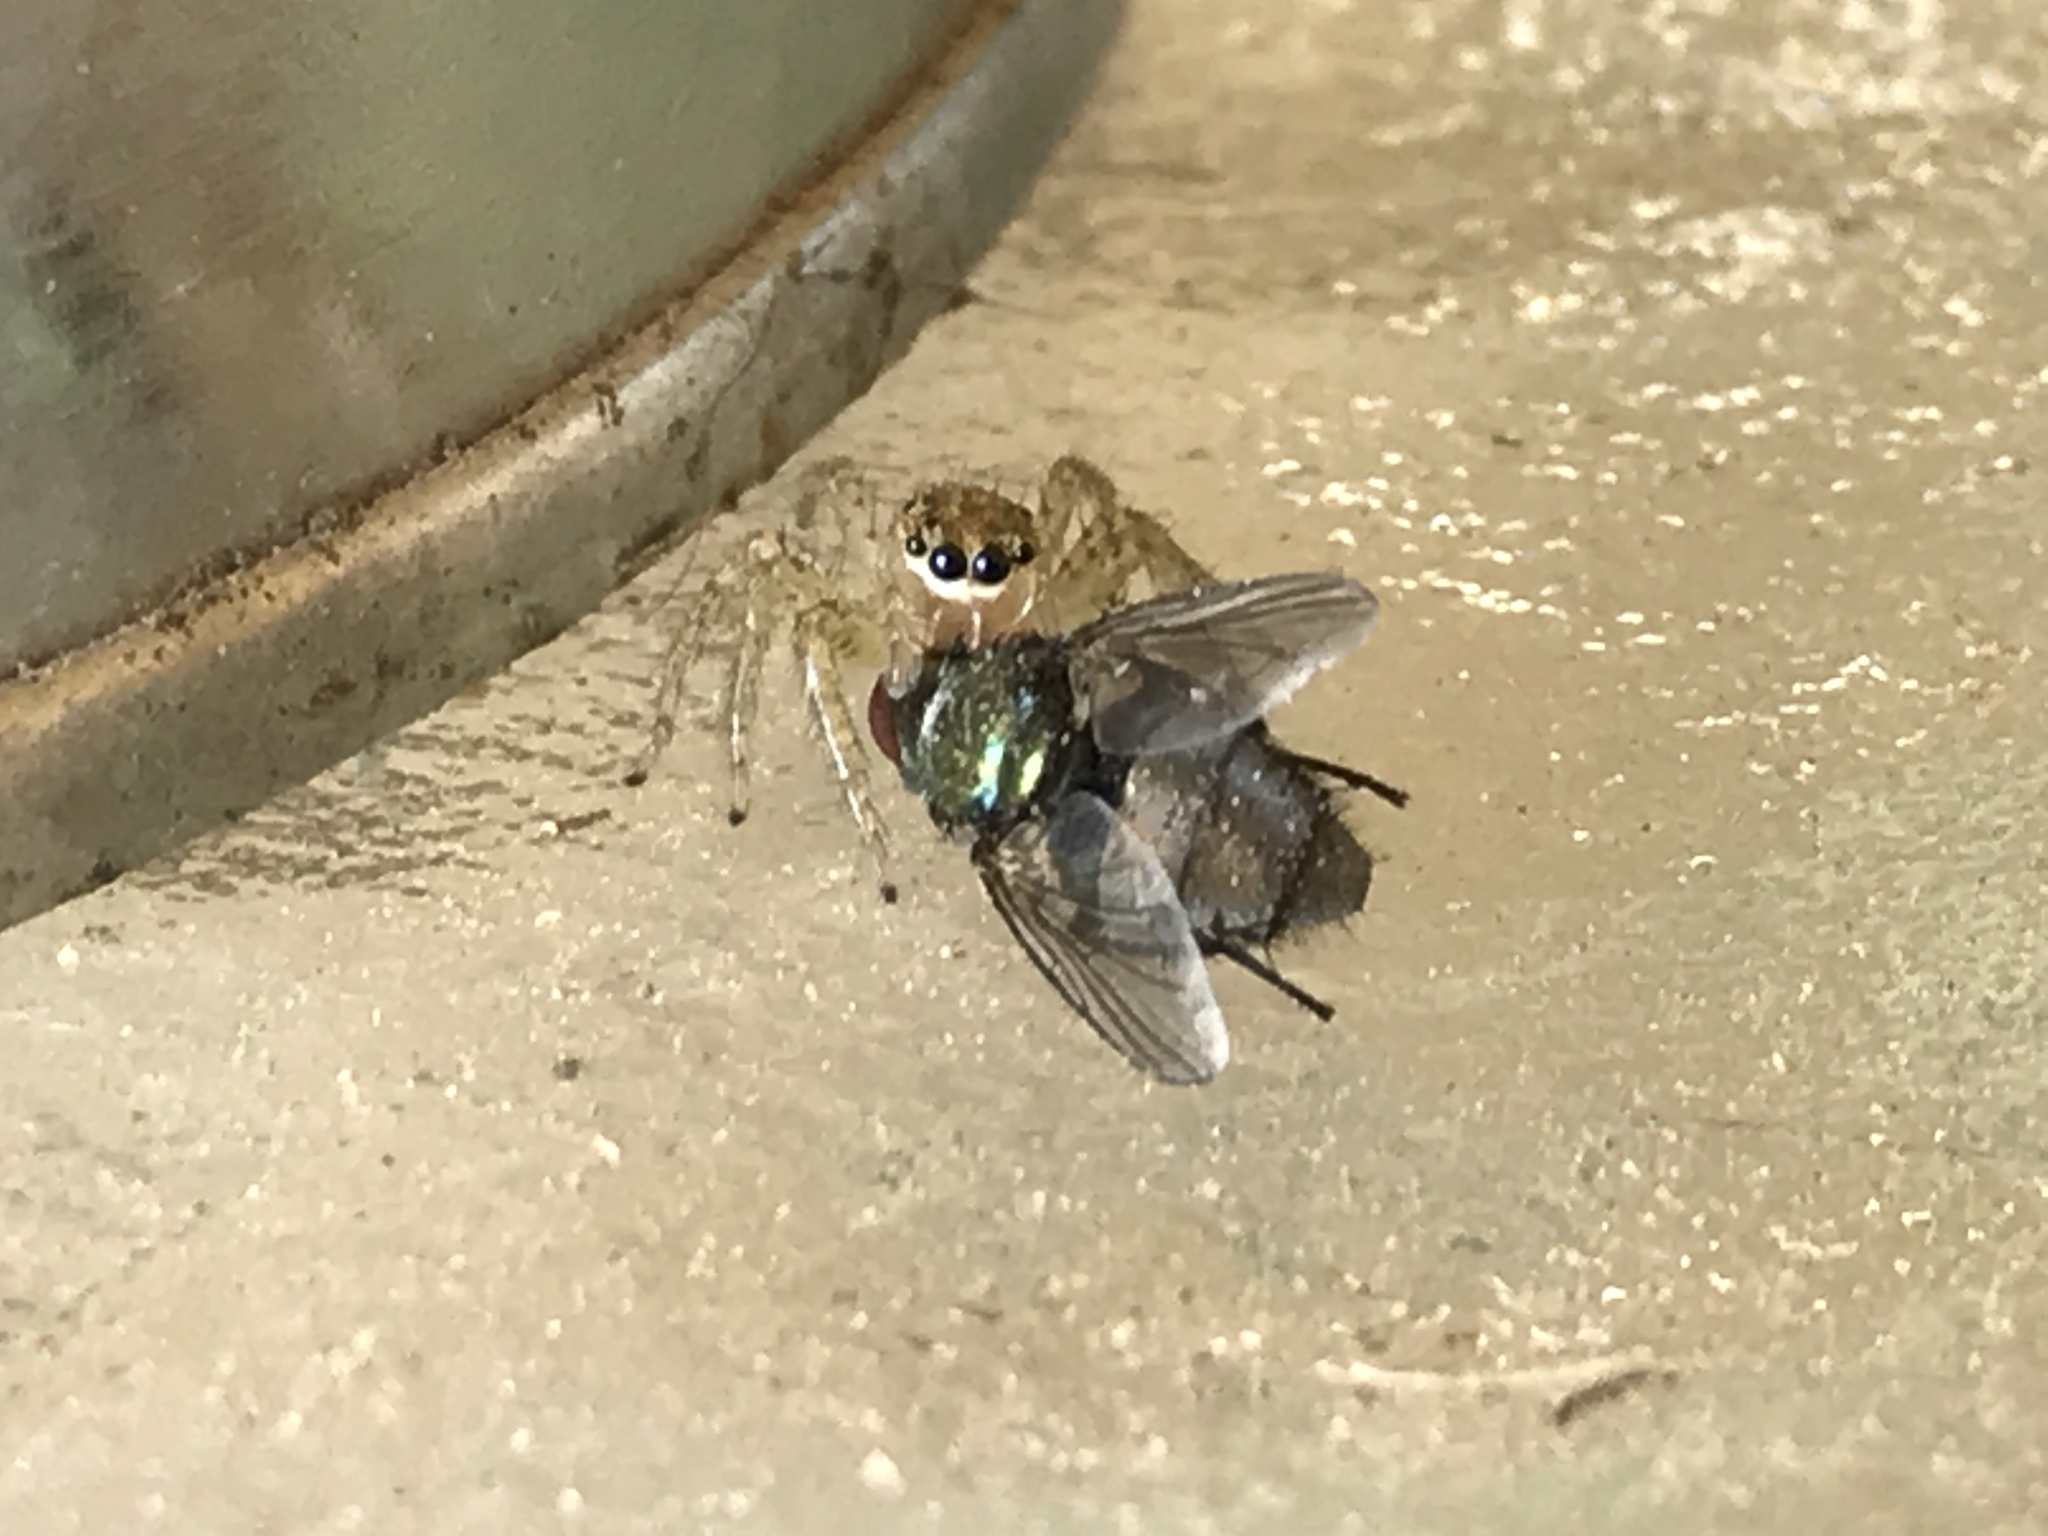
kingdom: Animalia
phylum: Arthropoda
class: Arachnida
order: Araneae
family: Salticidae
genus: Maevia
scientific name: Maevia inclemens
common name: Dimorphic jumper
